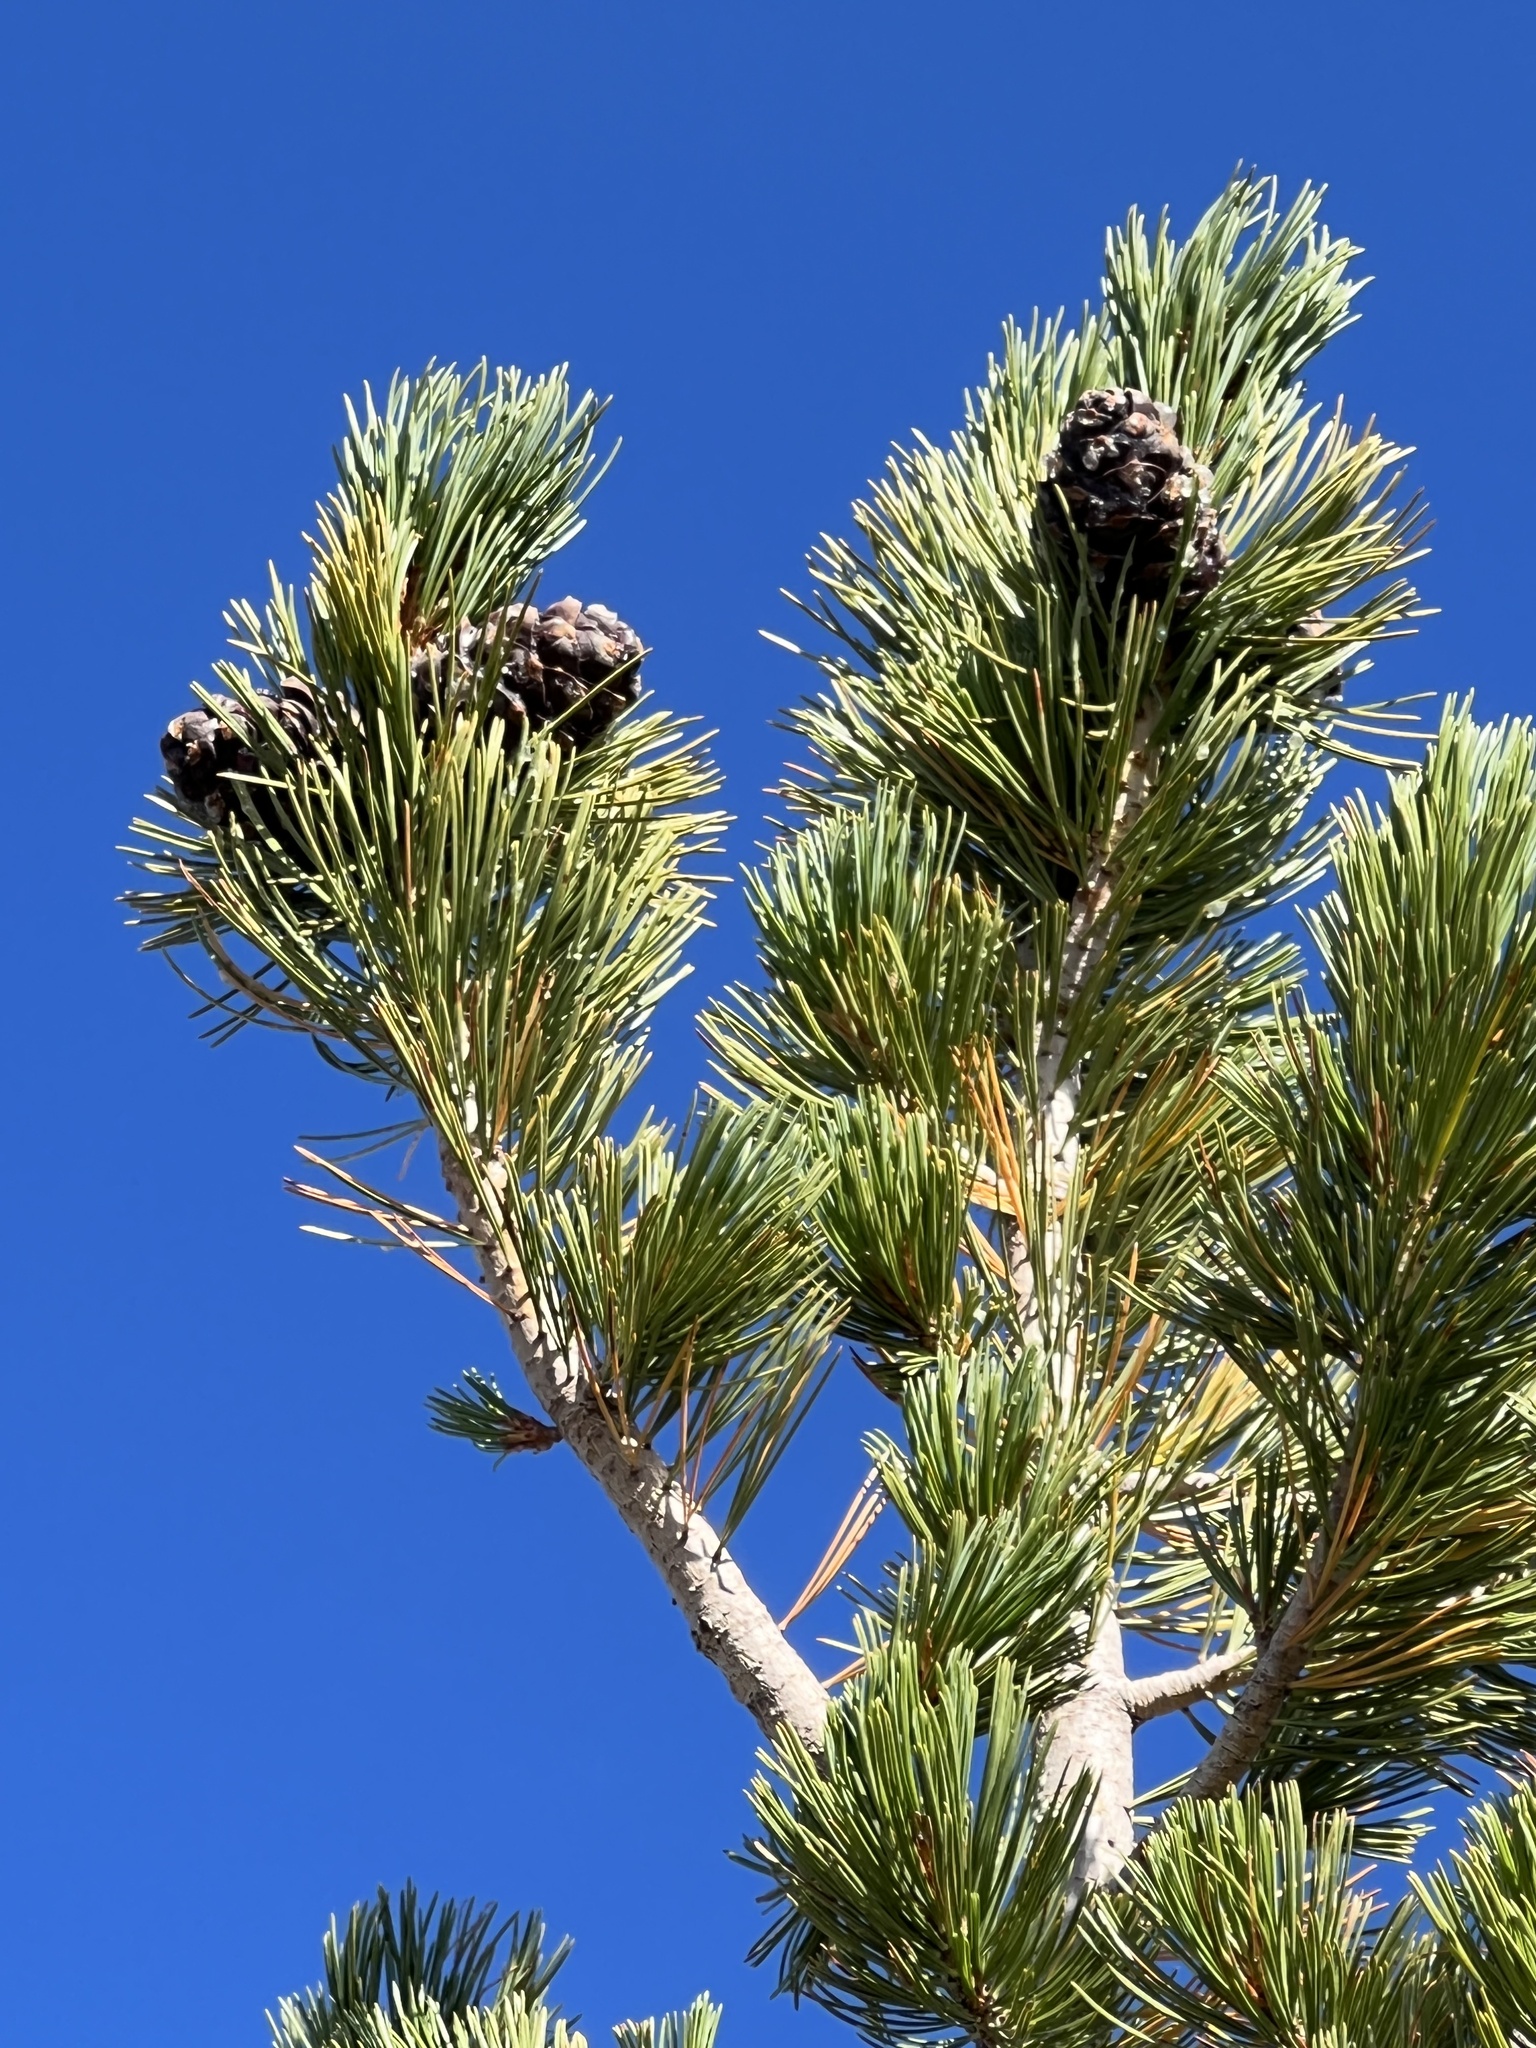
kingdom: Plantae
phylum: Tracheophyta
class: Pinopsida
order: Pinales
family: Pinaceae
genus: Pinus
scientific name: Pinus albicaulis
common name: Whitebark pine
